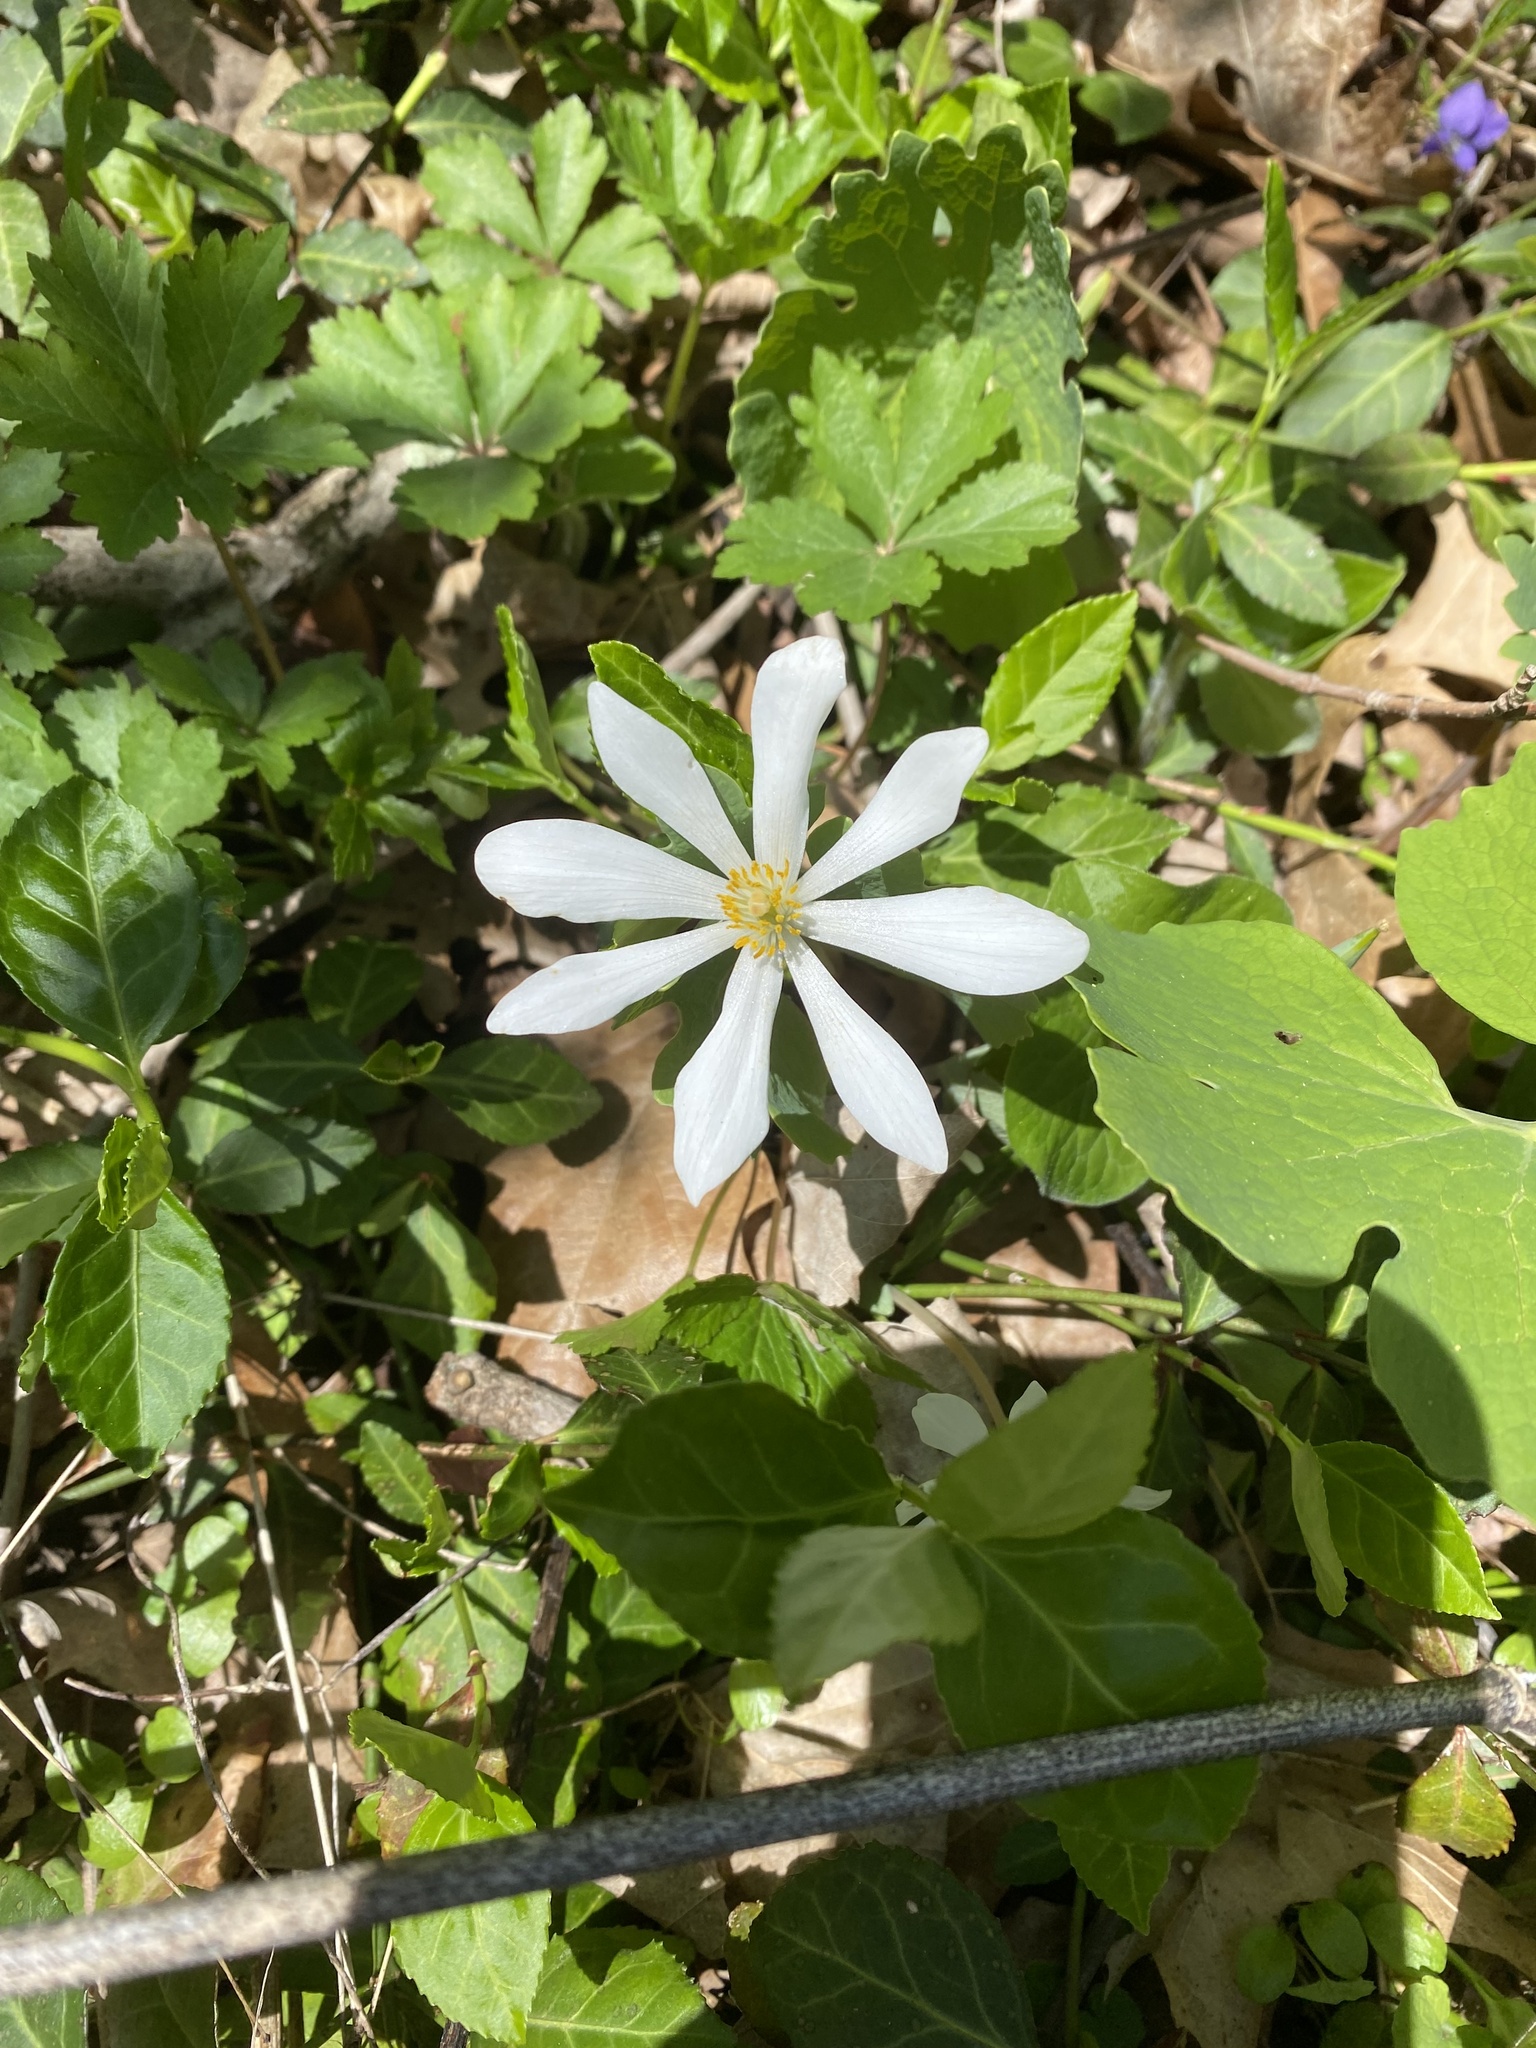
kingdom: Plantae
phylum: Tracheophyta
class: Magnoliopsida
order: Ranunculales
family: Papaveraceae
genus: Sanguinaria
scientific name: Sanguinaria canadensis
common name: Bloodroot
